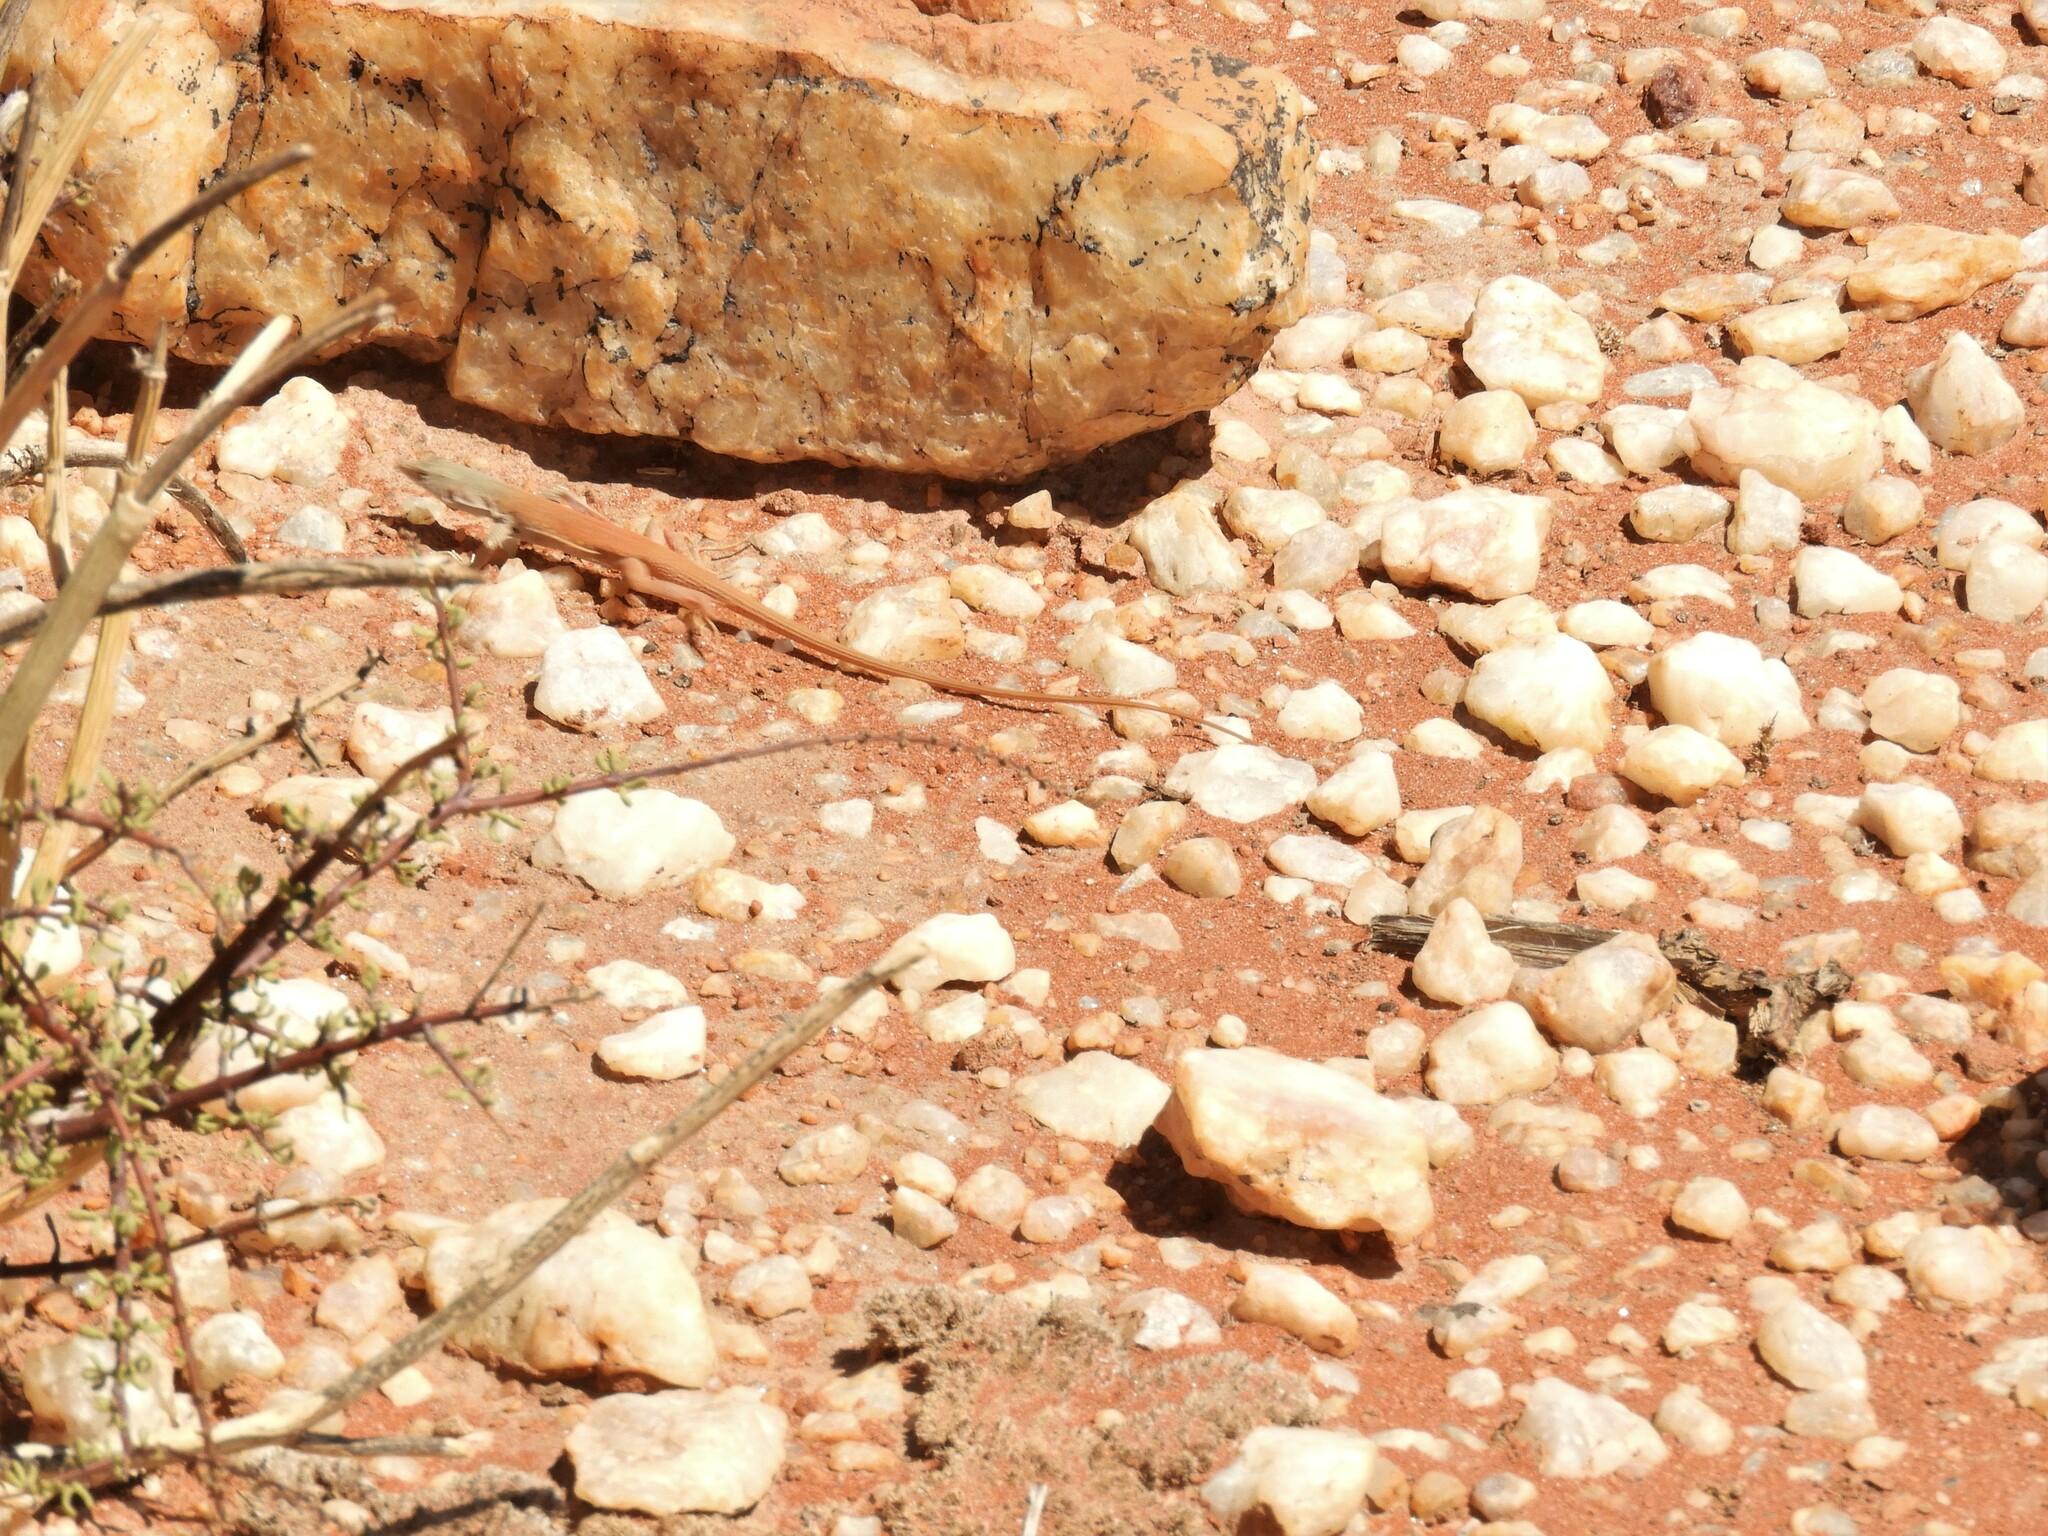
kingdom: Animalia
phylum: Chordata
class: Squamata
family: Lacertidae
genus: Pedioplanis
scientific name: Pedioplanis inornata
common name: Plain sand lizard
